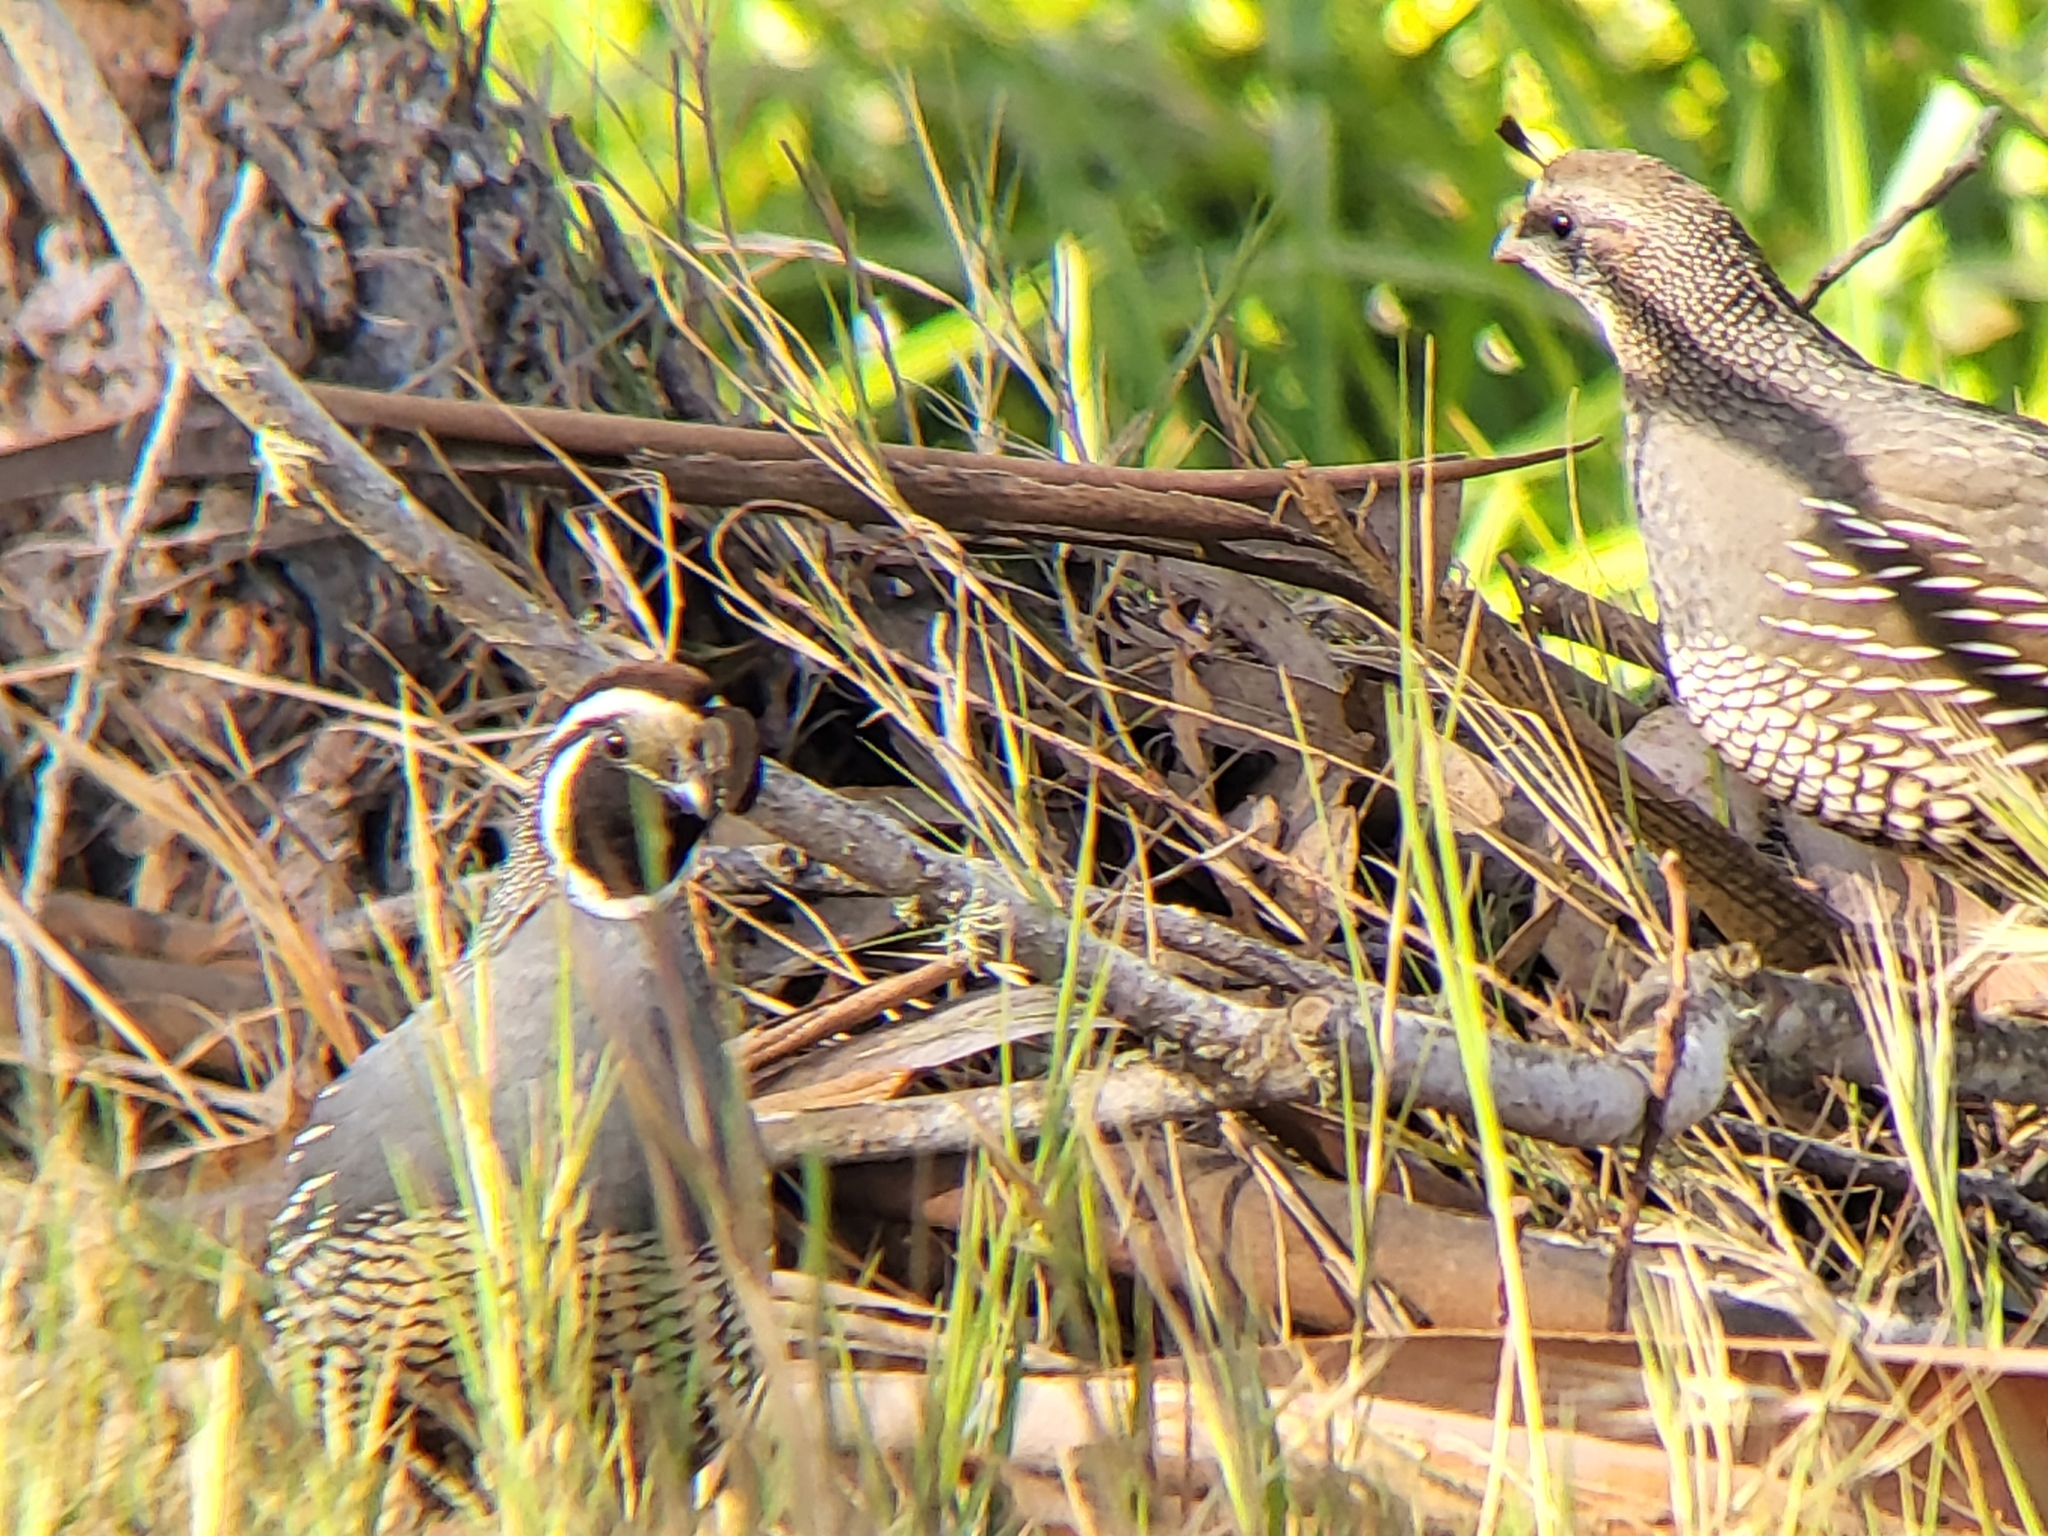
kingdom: Animalia
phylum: Chordata
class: Aves
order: Galliformes
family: Odontophoridae
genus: Callipepla
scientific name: Callipepla californica
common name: California quail
